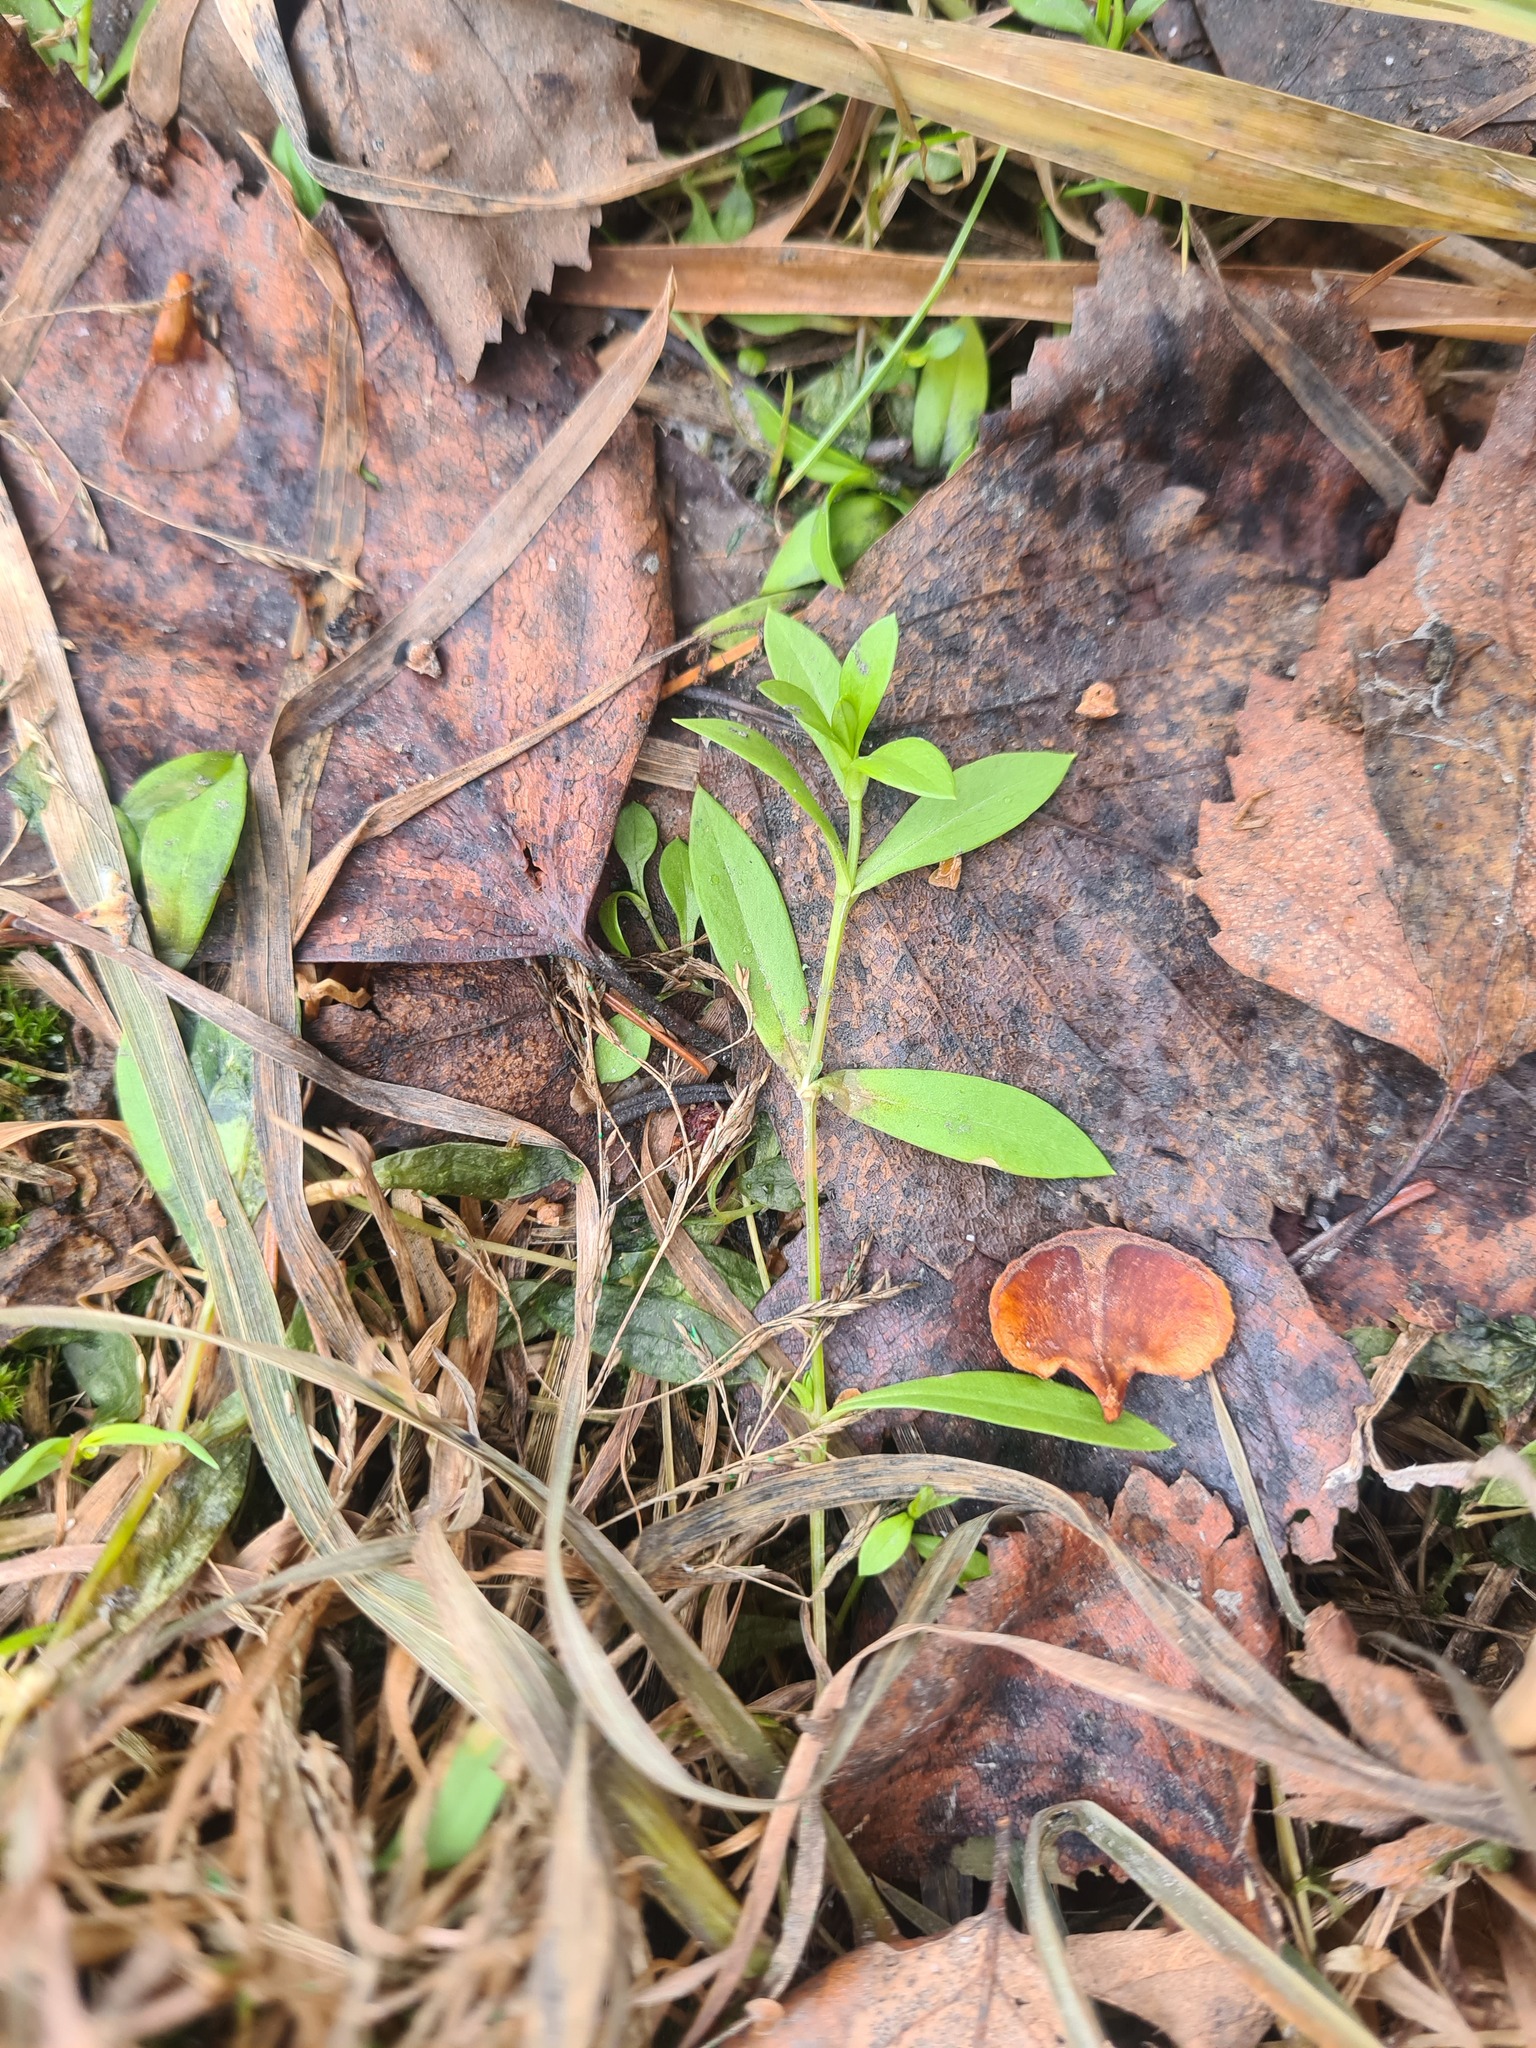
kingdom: Plantae
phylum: Tracheophyta
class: Magnoliopsida
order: Caryophyllales
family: Caryophyllaceae
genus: Cerastium
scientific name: Cerastium holosteoides
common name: Big chickweed
